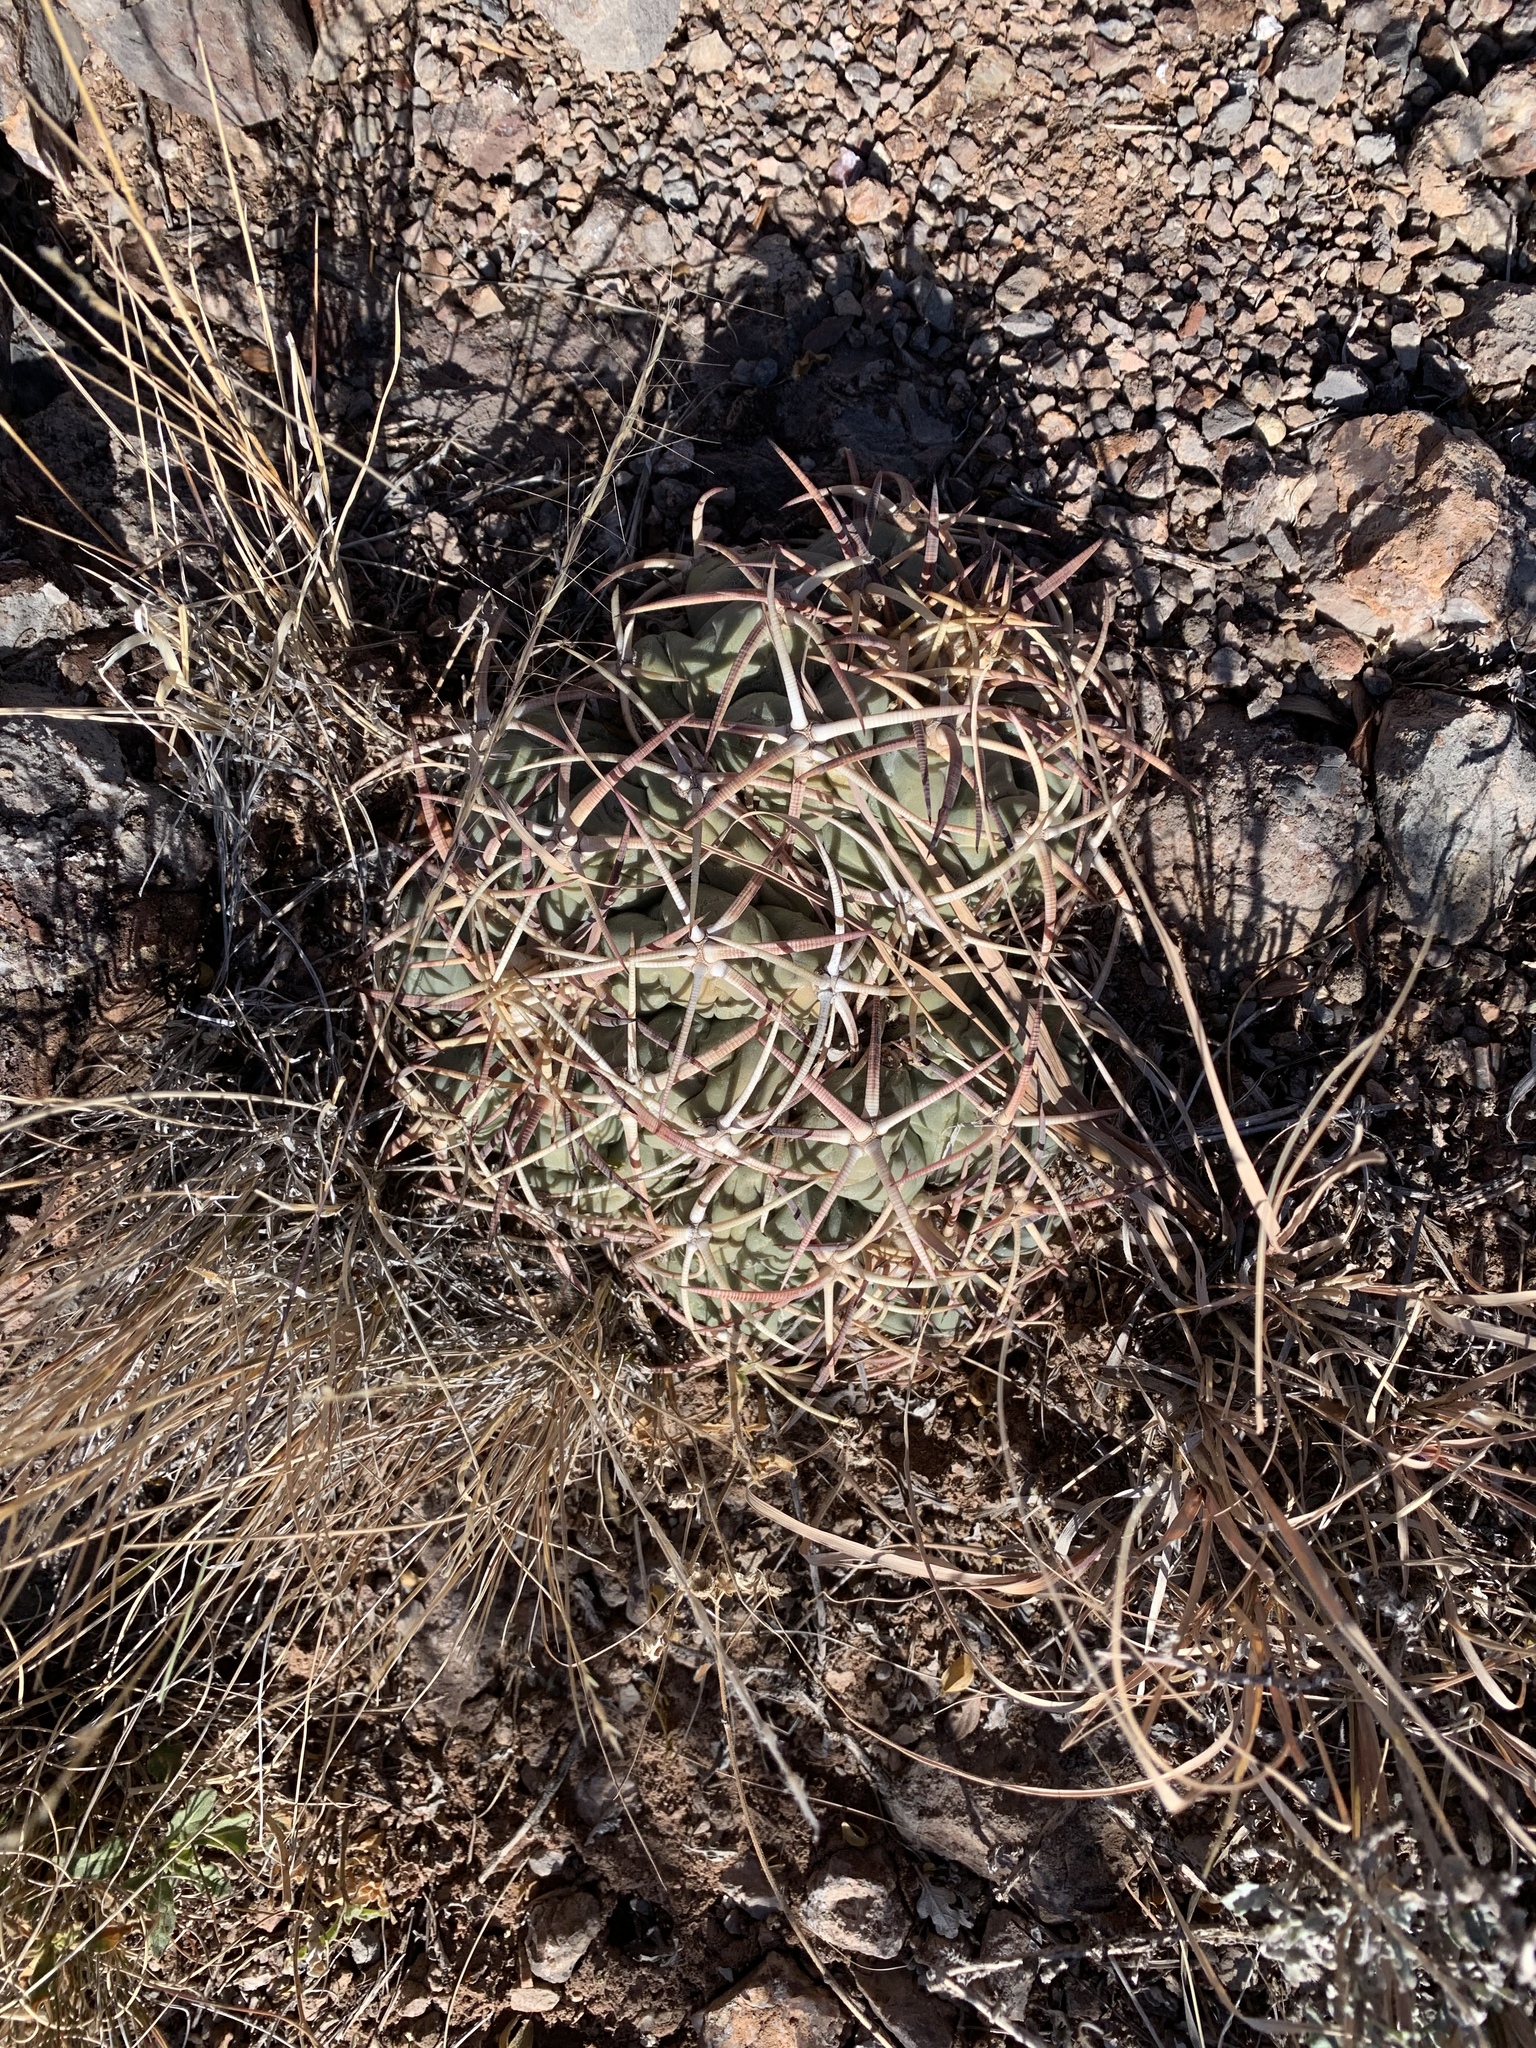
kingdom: Plantae
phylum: Tracheophyta
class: Magnoliopsida
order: Caryophyllales
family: Cactaceae
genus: Echinocactus
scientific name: Echinocactus horizonthalonius
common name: Devilshead
